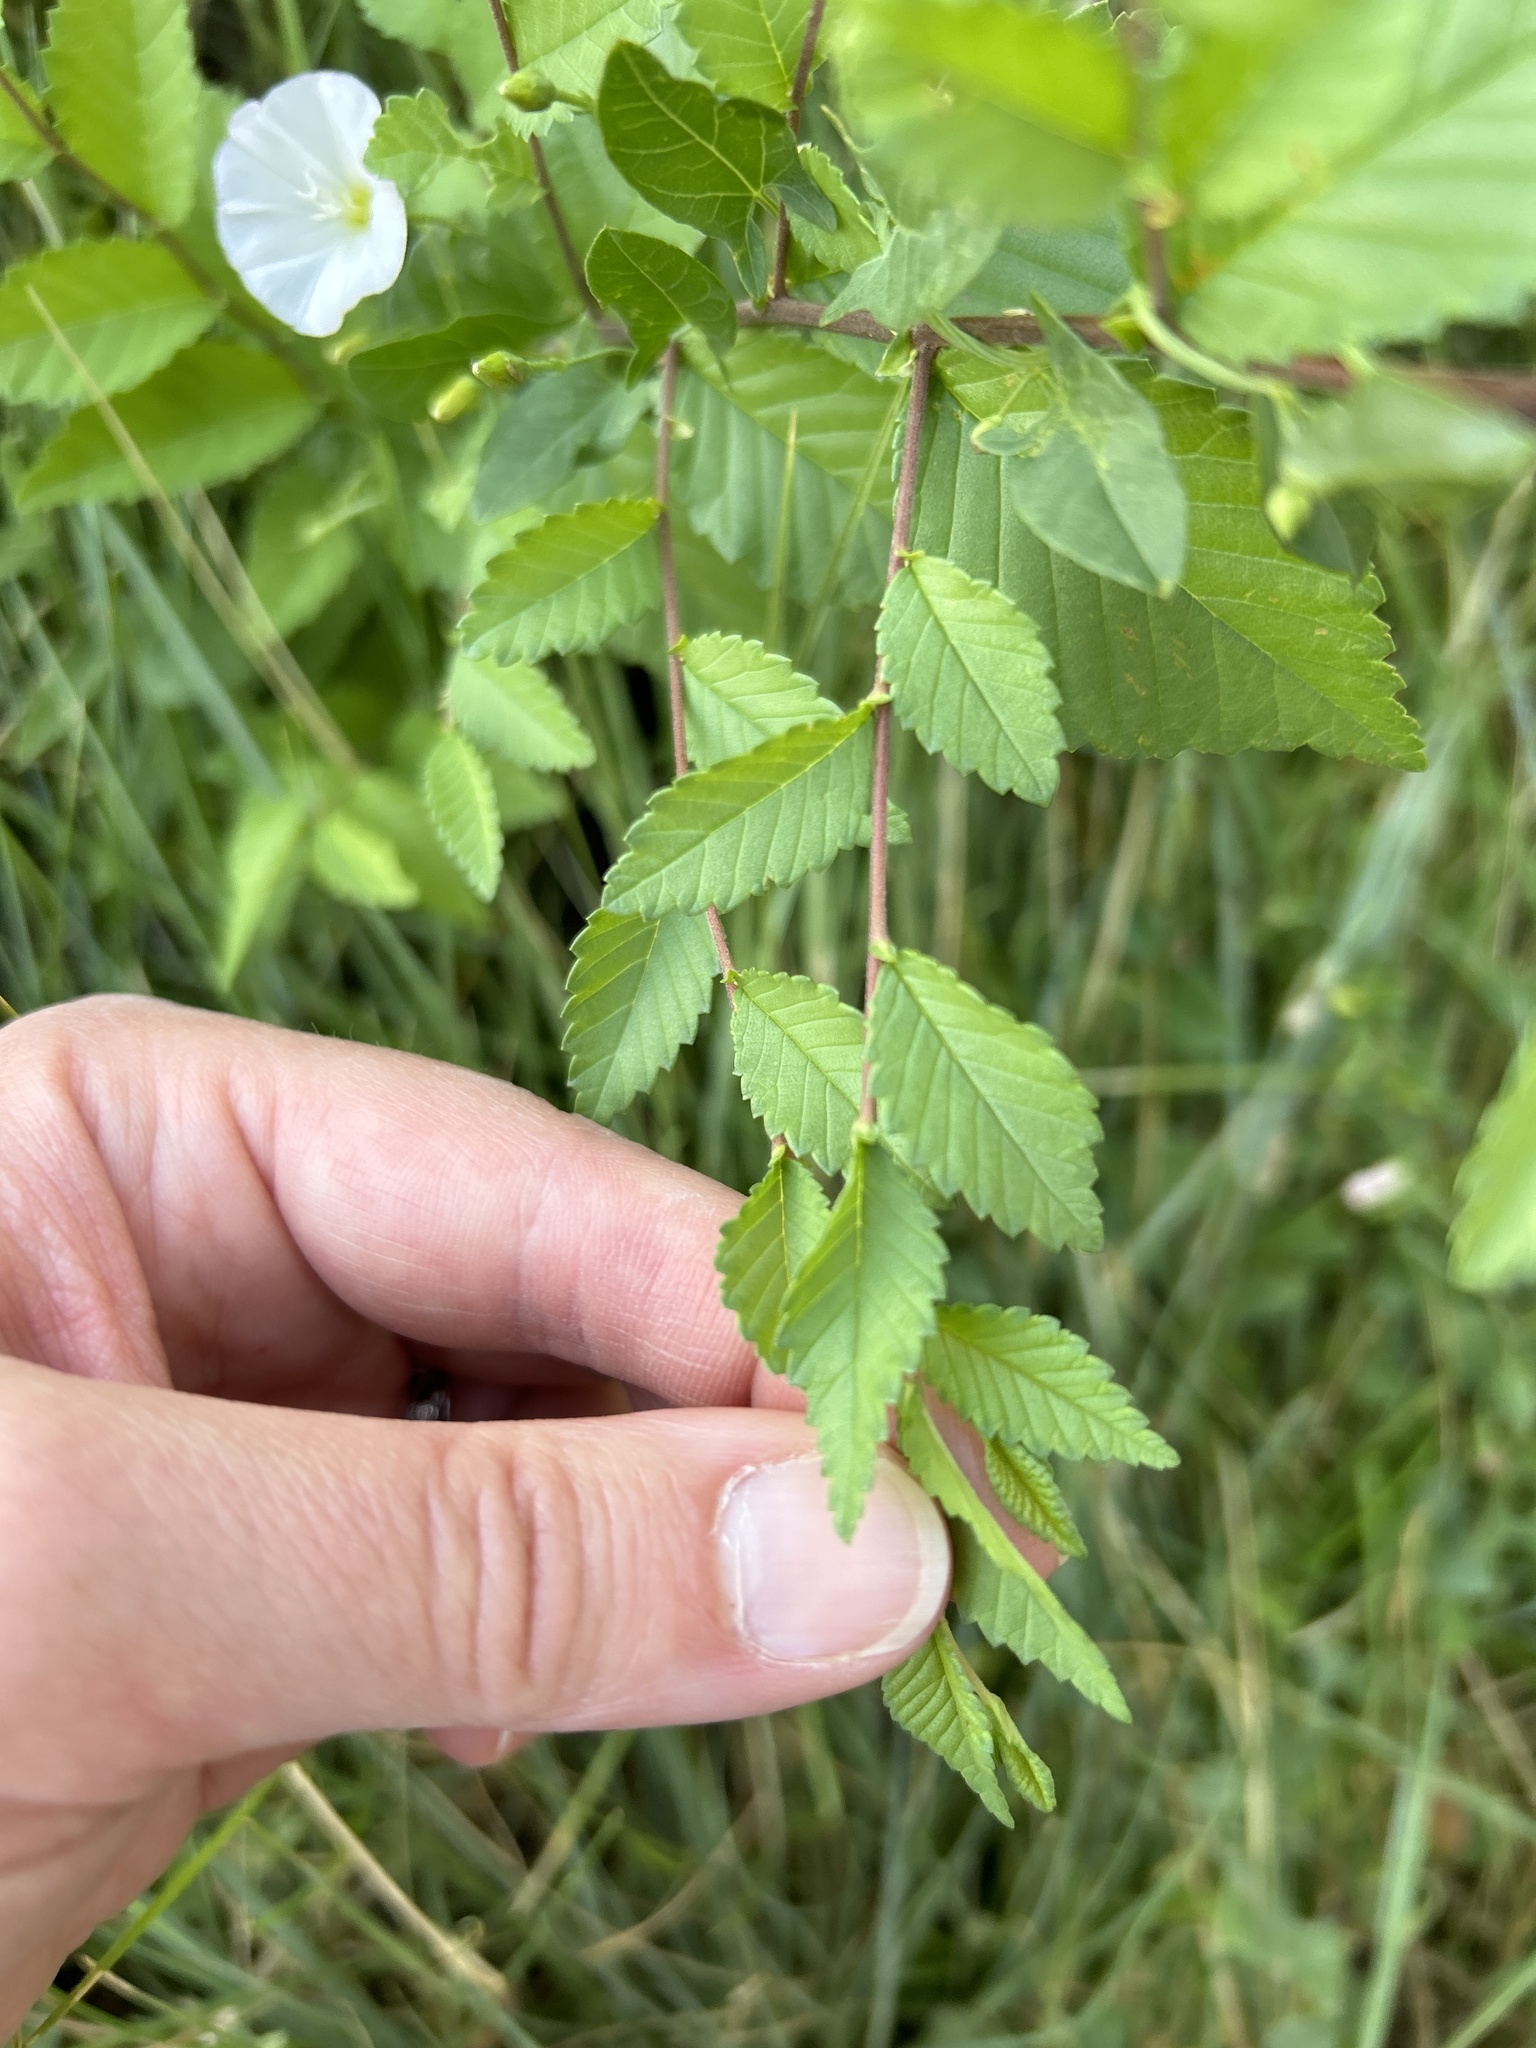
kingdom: Plantae
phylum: Tracheophyta
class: Magnoliopsida
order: Rosales
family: Ulmaceae
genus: Ulmus
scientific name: Ulmus pumila
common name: Siberian elm
